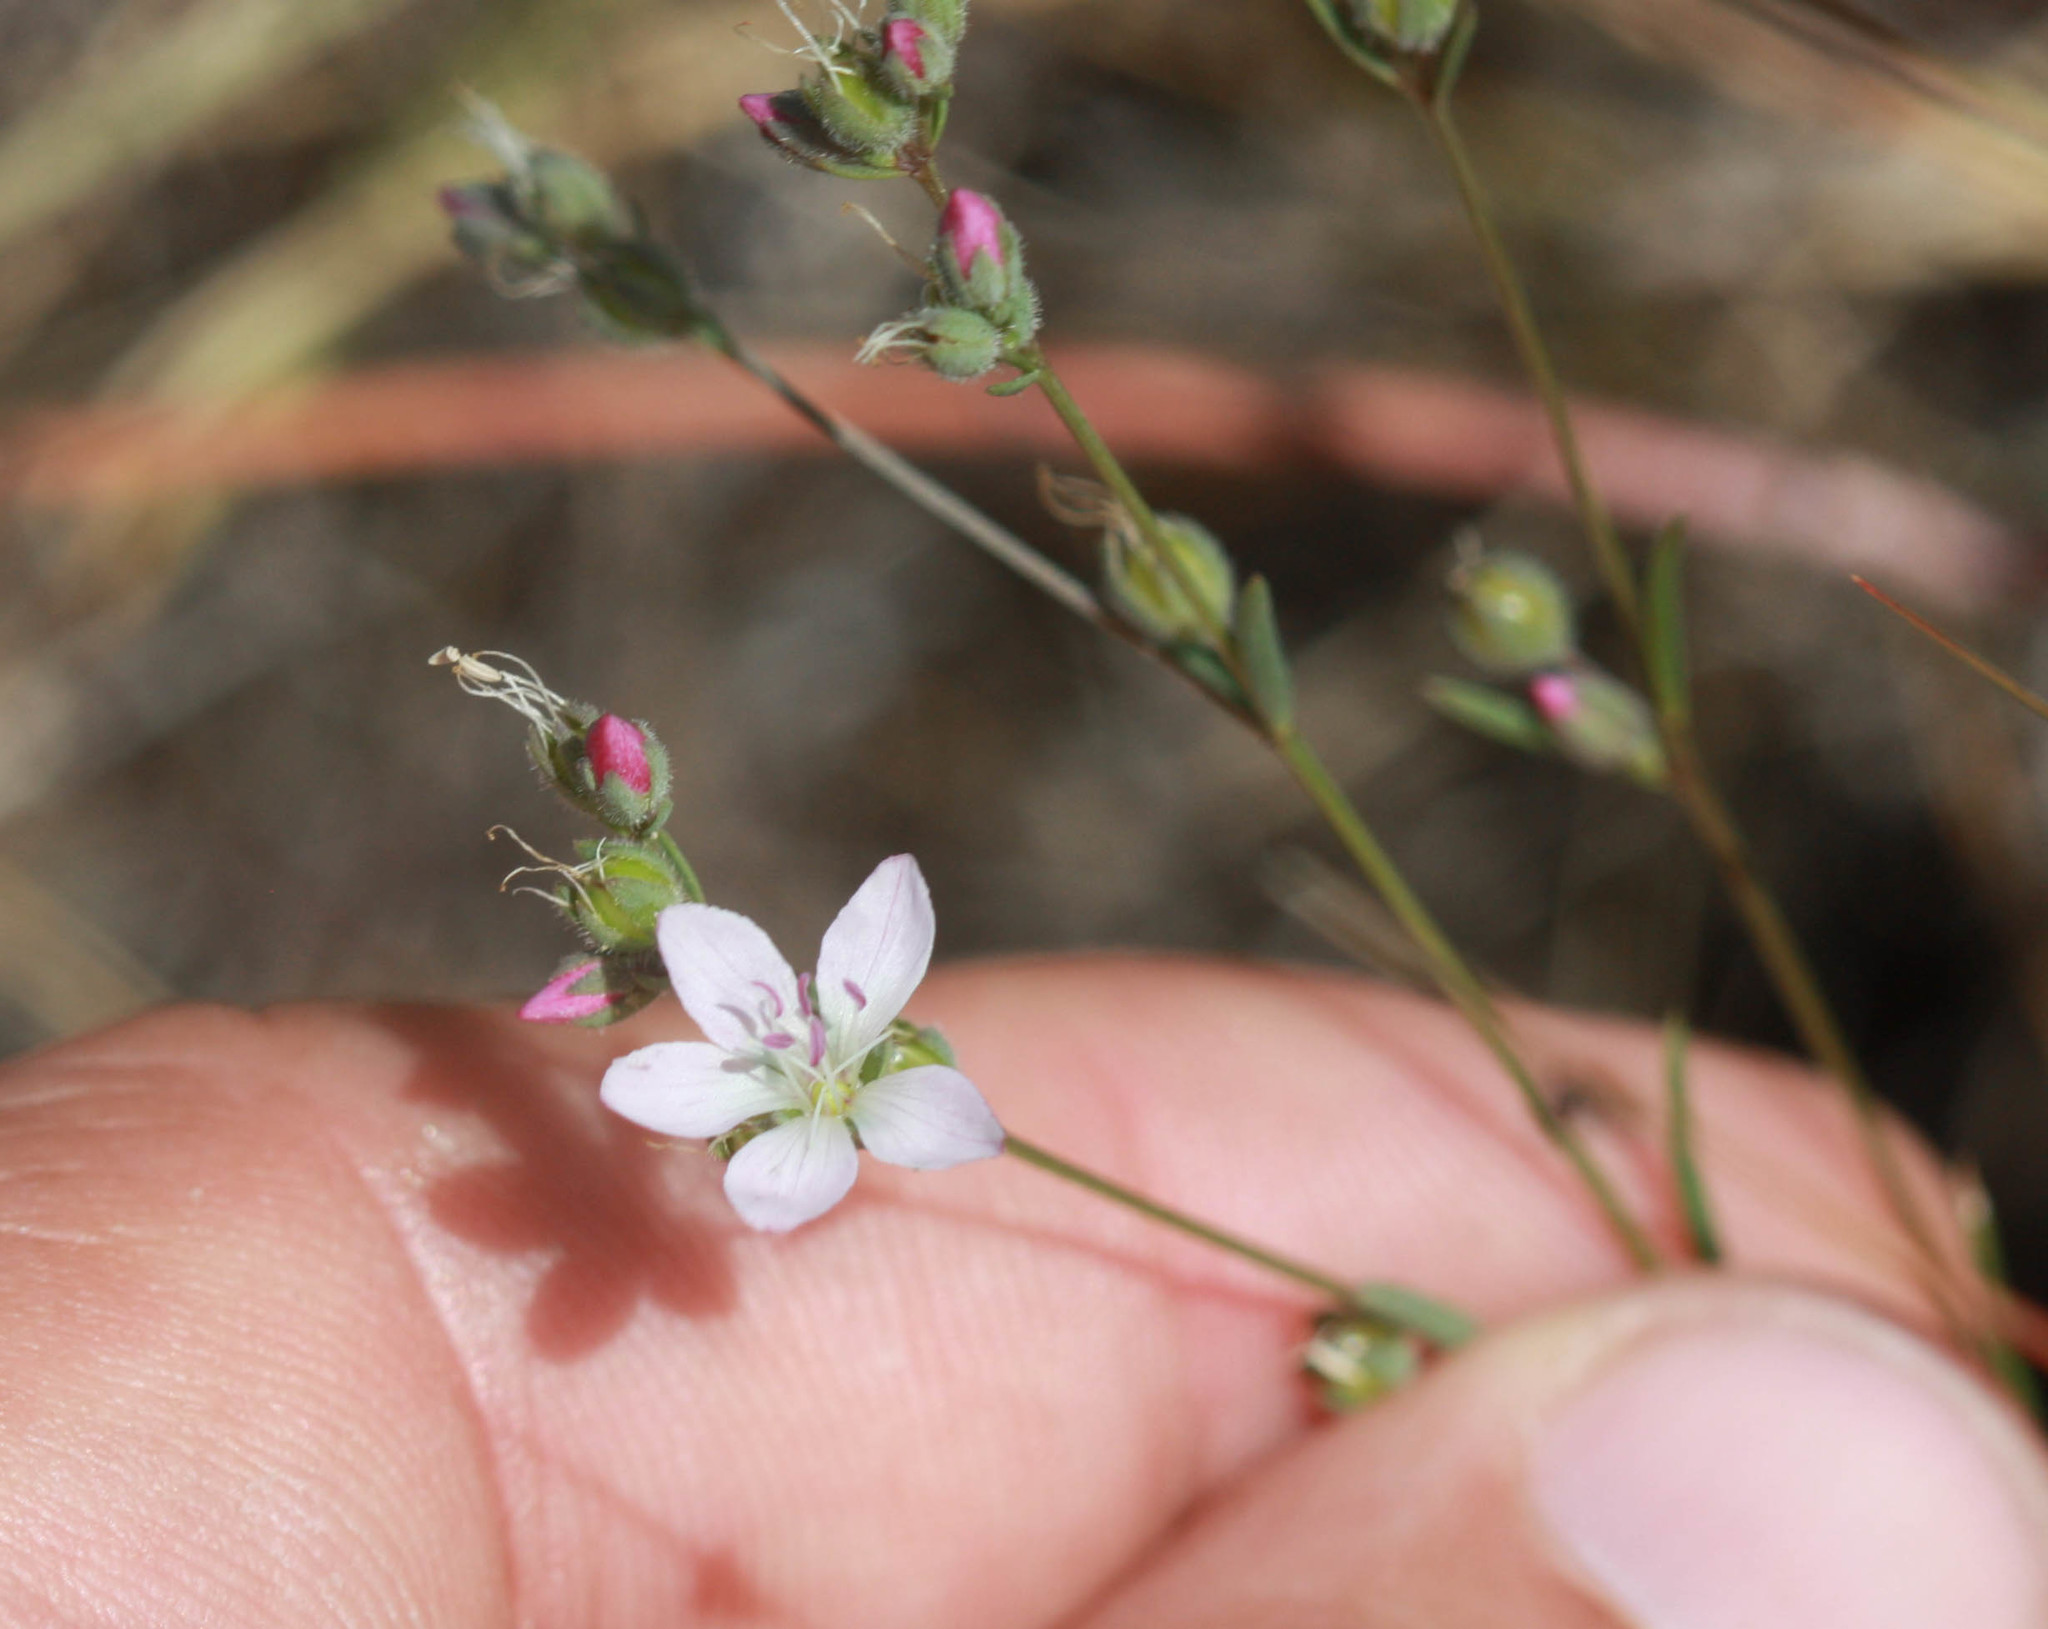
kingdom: Plantae
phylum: Tracheophyta
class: Magnoliopsida
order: Malpighiales
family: Linaceae
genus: Hesperolinon
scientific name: Hesperolinon congestum
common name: Marin dwarf-flax
